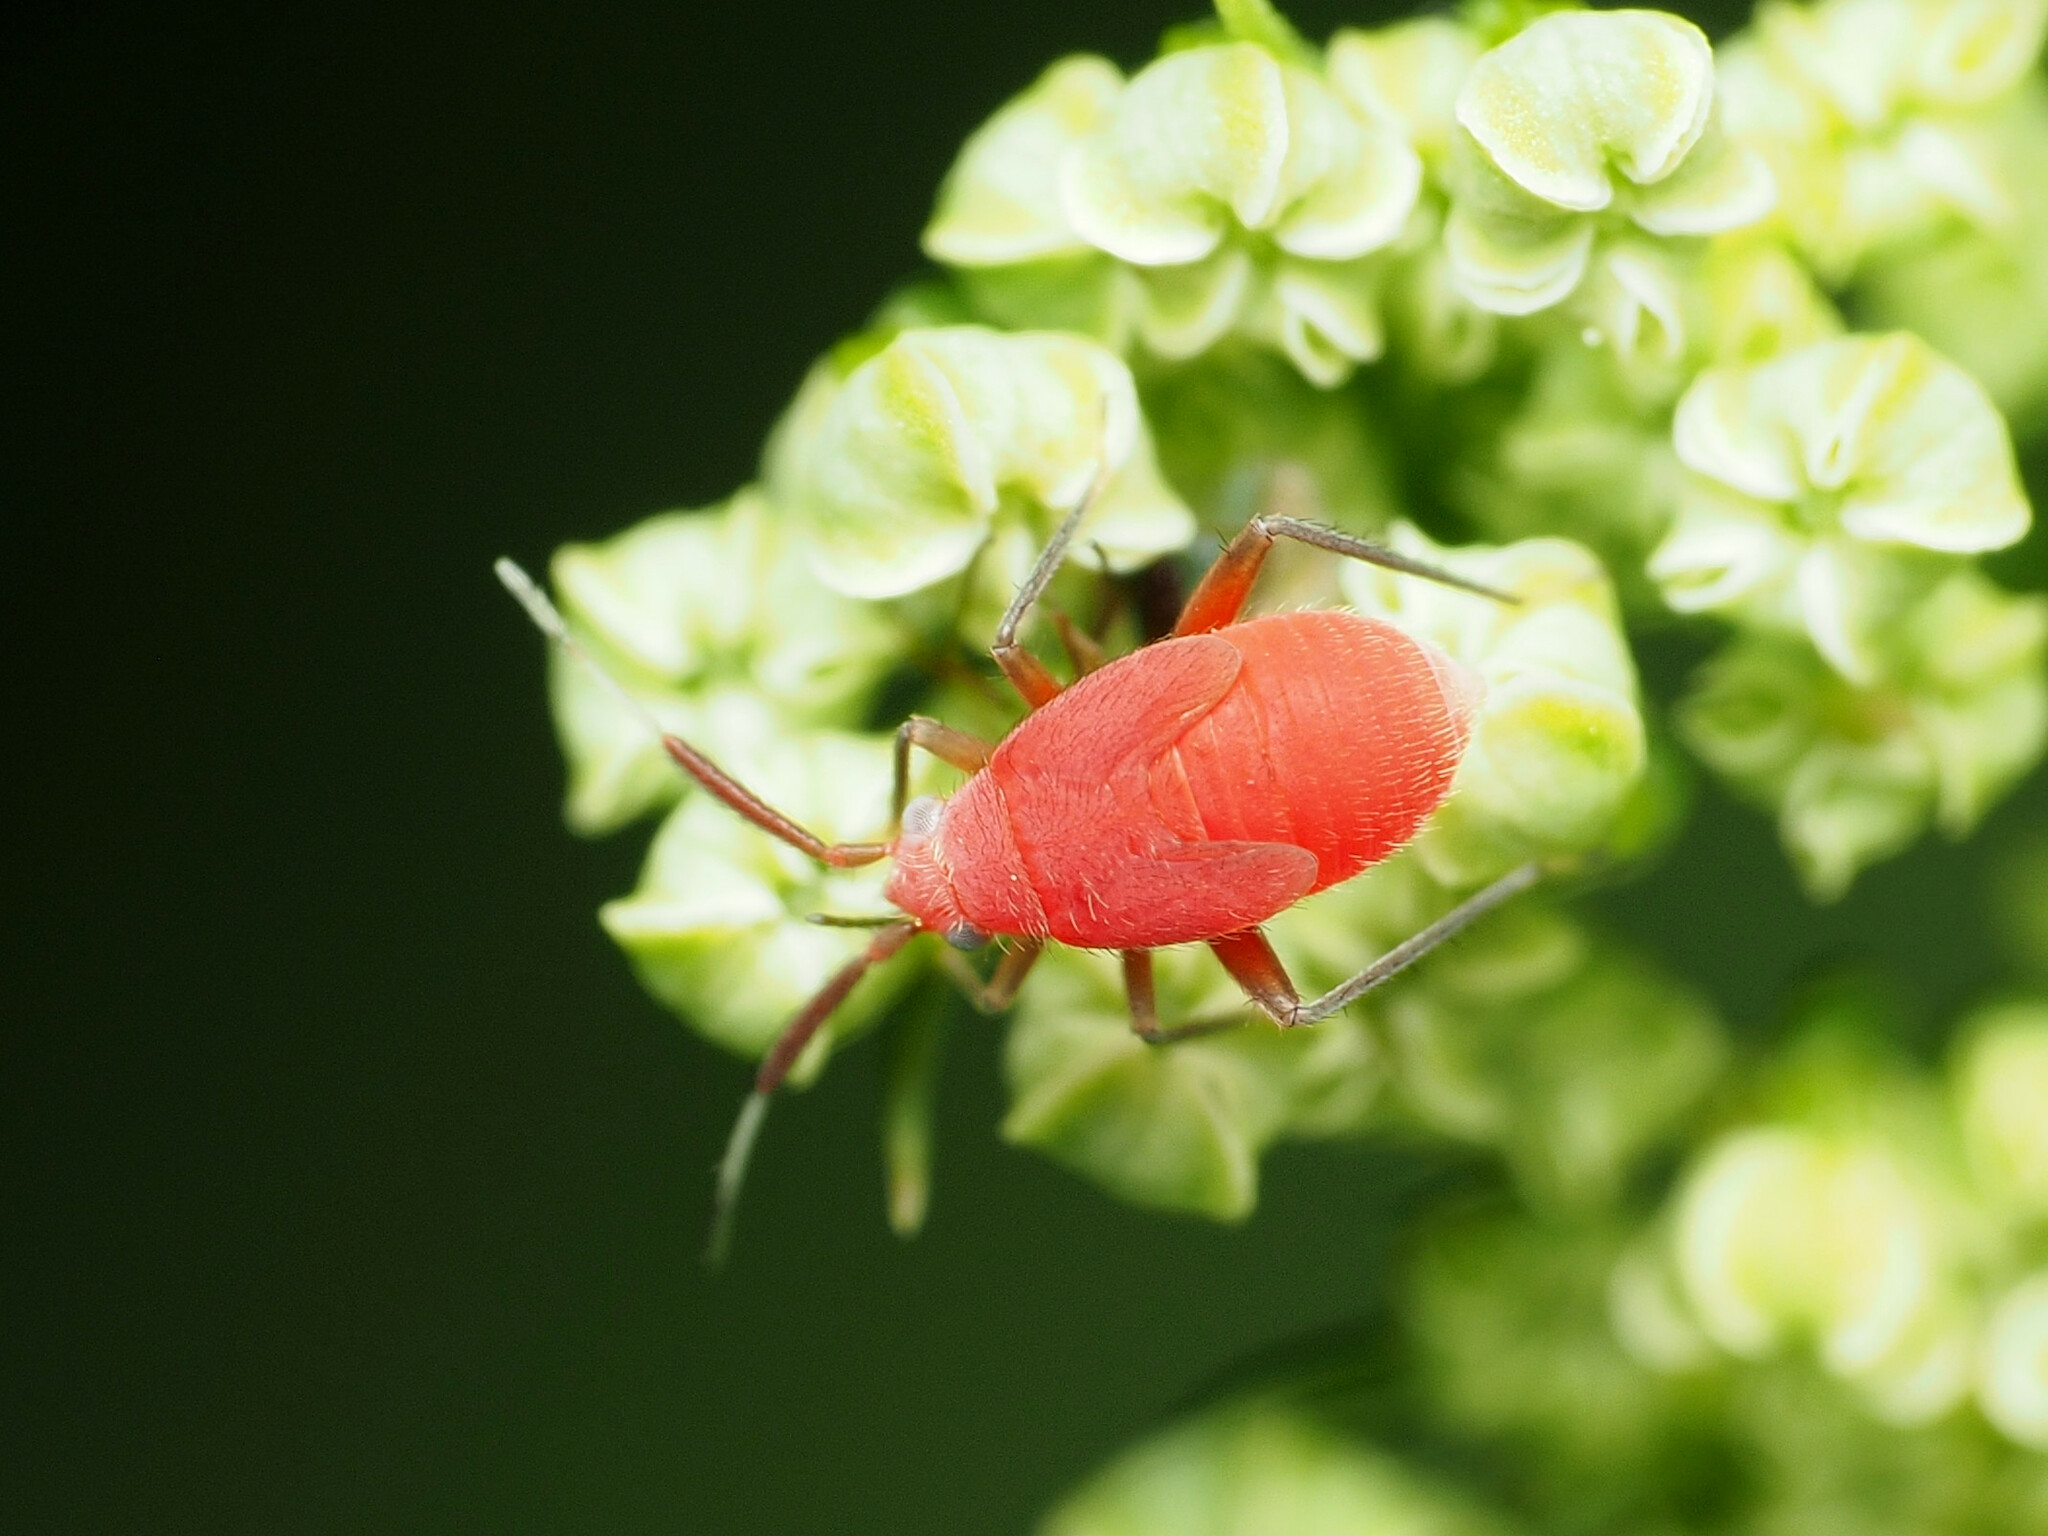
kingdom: Animalia
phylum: Arthropoda
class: Insecta
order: Hemiptera
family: Miridae
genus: Coccobaphes
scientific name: Coccobaphes frontifer
